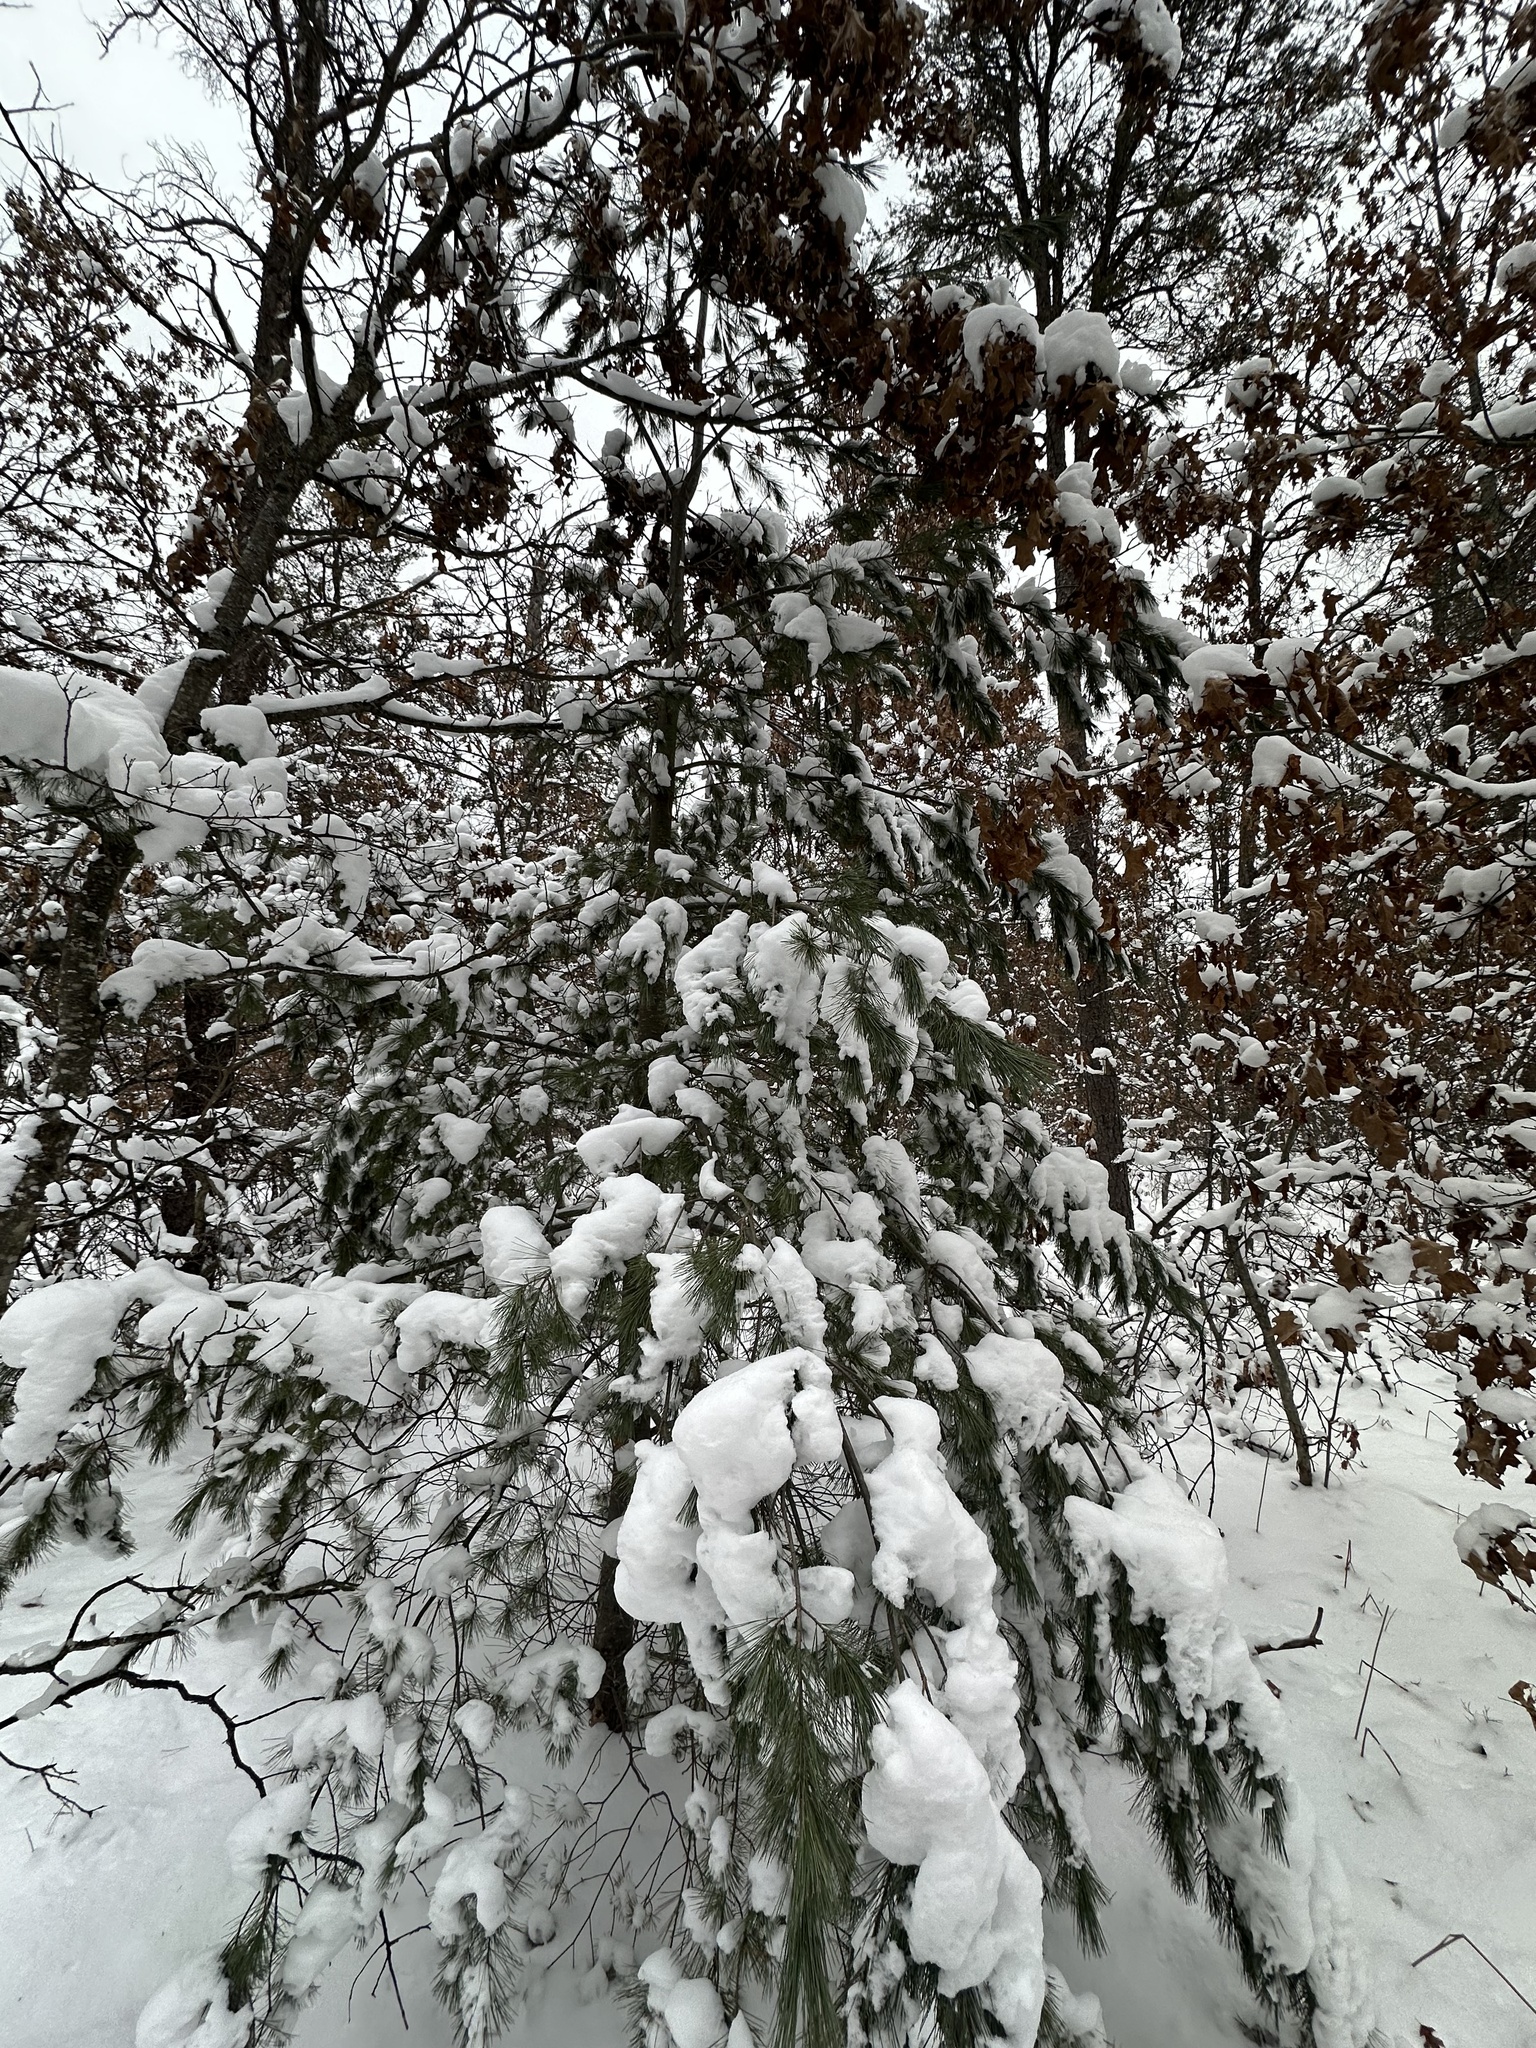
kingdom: Plantae
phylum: Tracheophyta
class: Pinopsida
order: Pinales
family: Pinaceae
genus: Pinus
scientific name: Pinus strobus
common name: Weymouth pine
